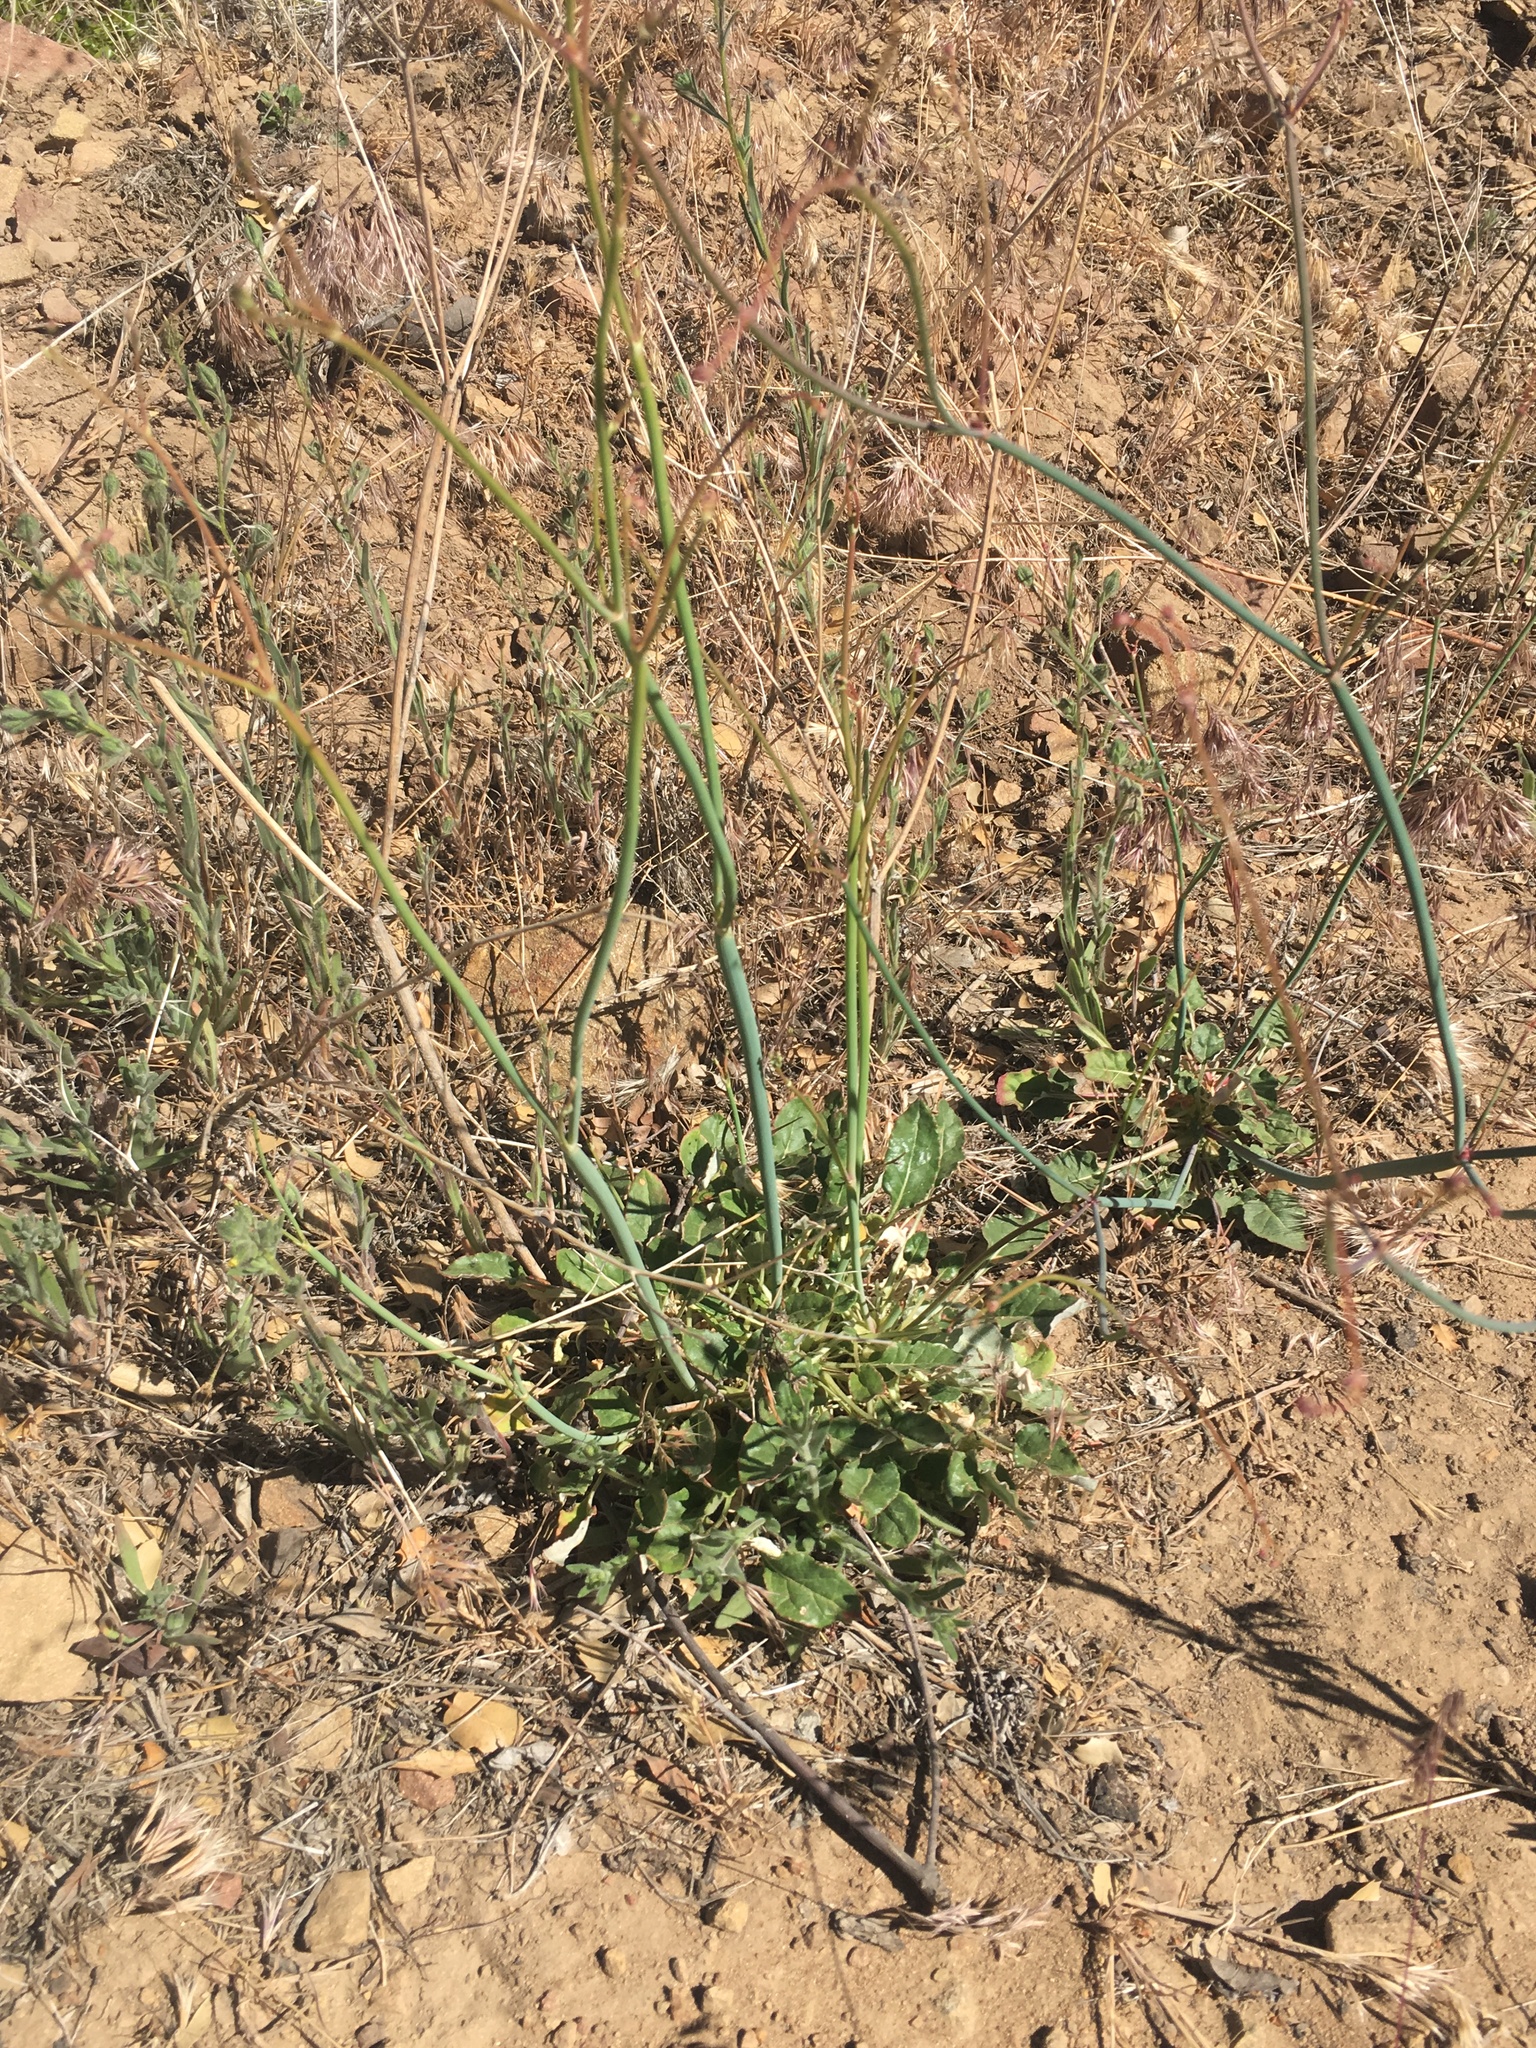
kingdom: Plantae
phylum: Tracheophyta
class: Magnoliopsida
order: Caryophyllales
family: Polygonaceae
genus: Eriogonum
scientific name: Eriogonum nudum
